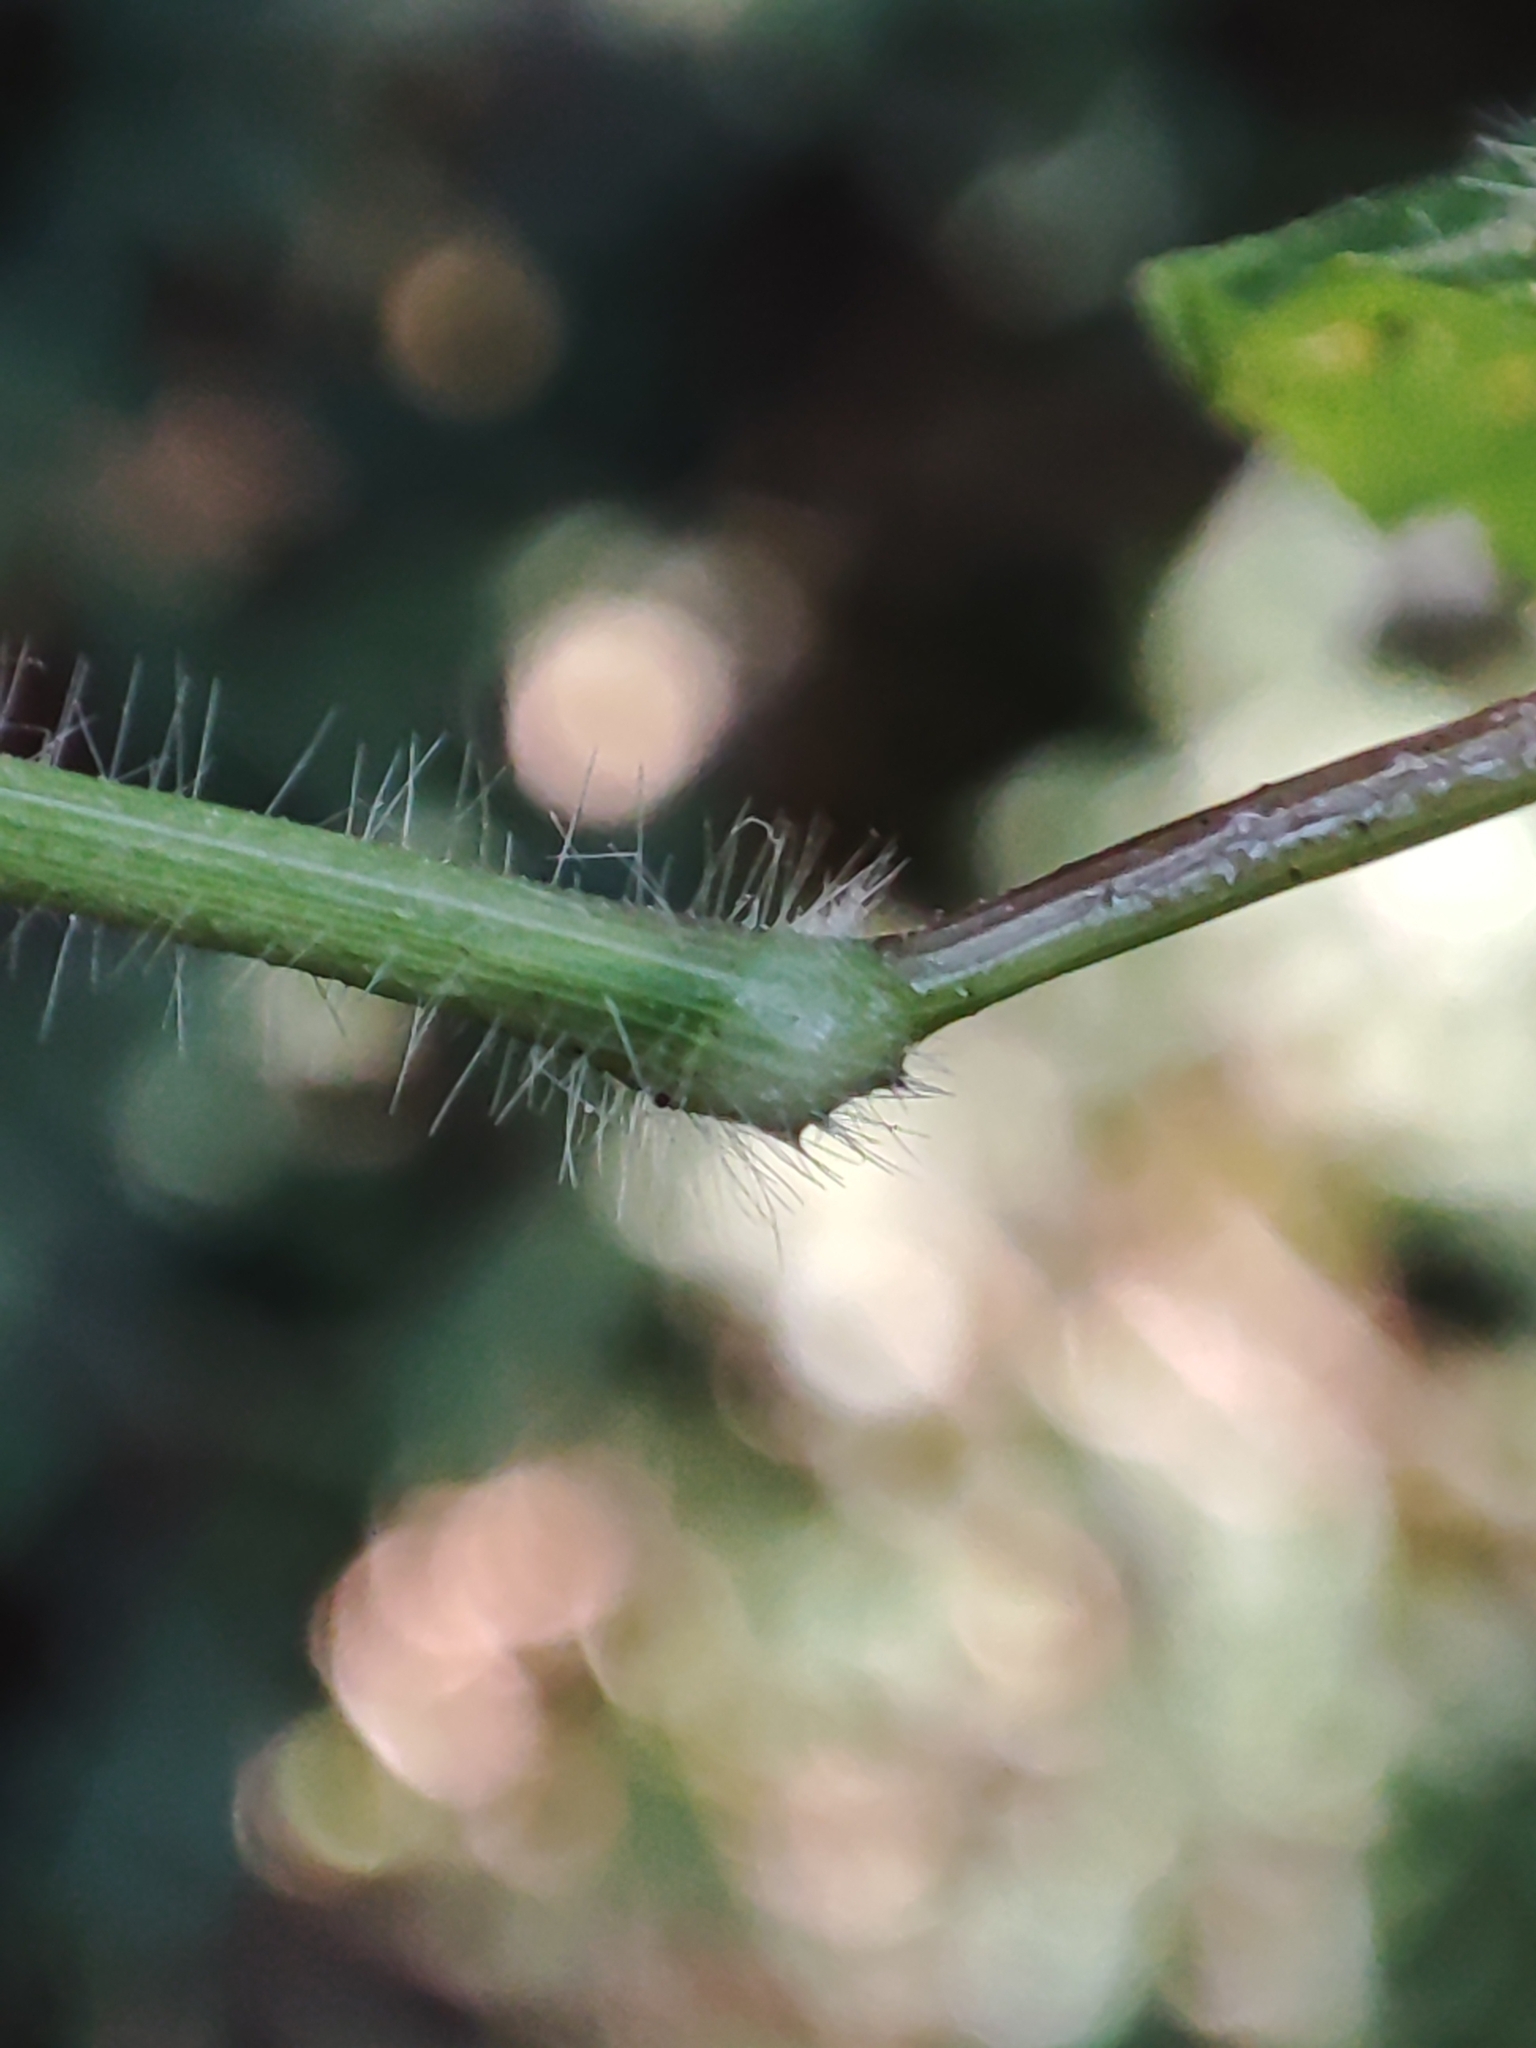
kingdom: Plantae
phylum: Tracheophyta
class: Liliopsida
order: Poales
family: Poaceae
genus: Oplismenus
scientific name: Oplismenus undulatifolius
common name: Wavyleaf basketgrass
